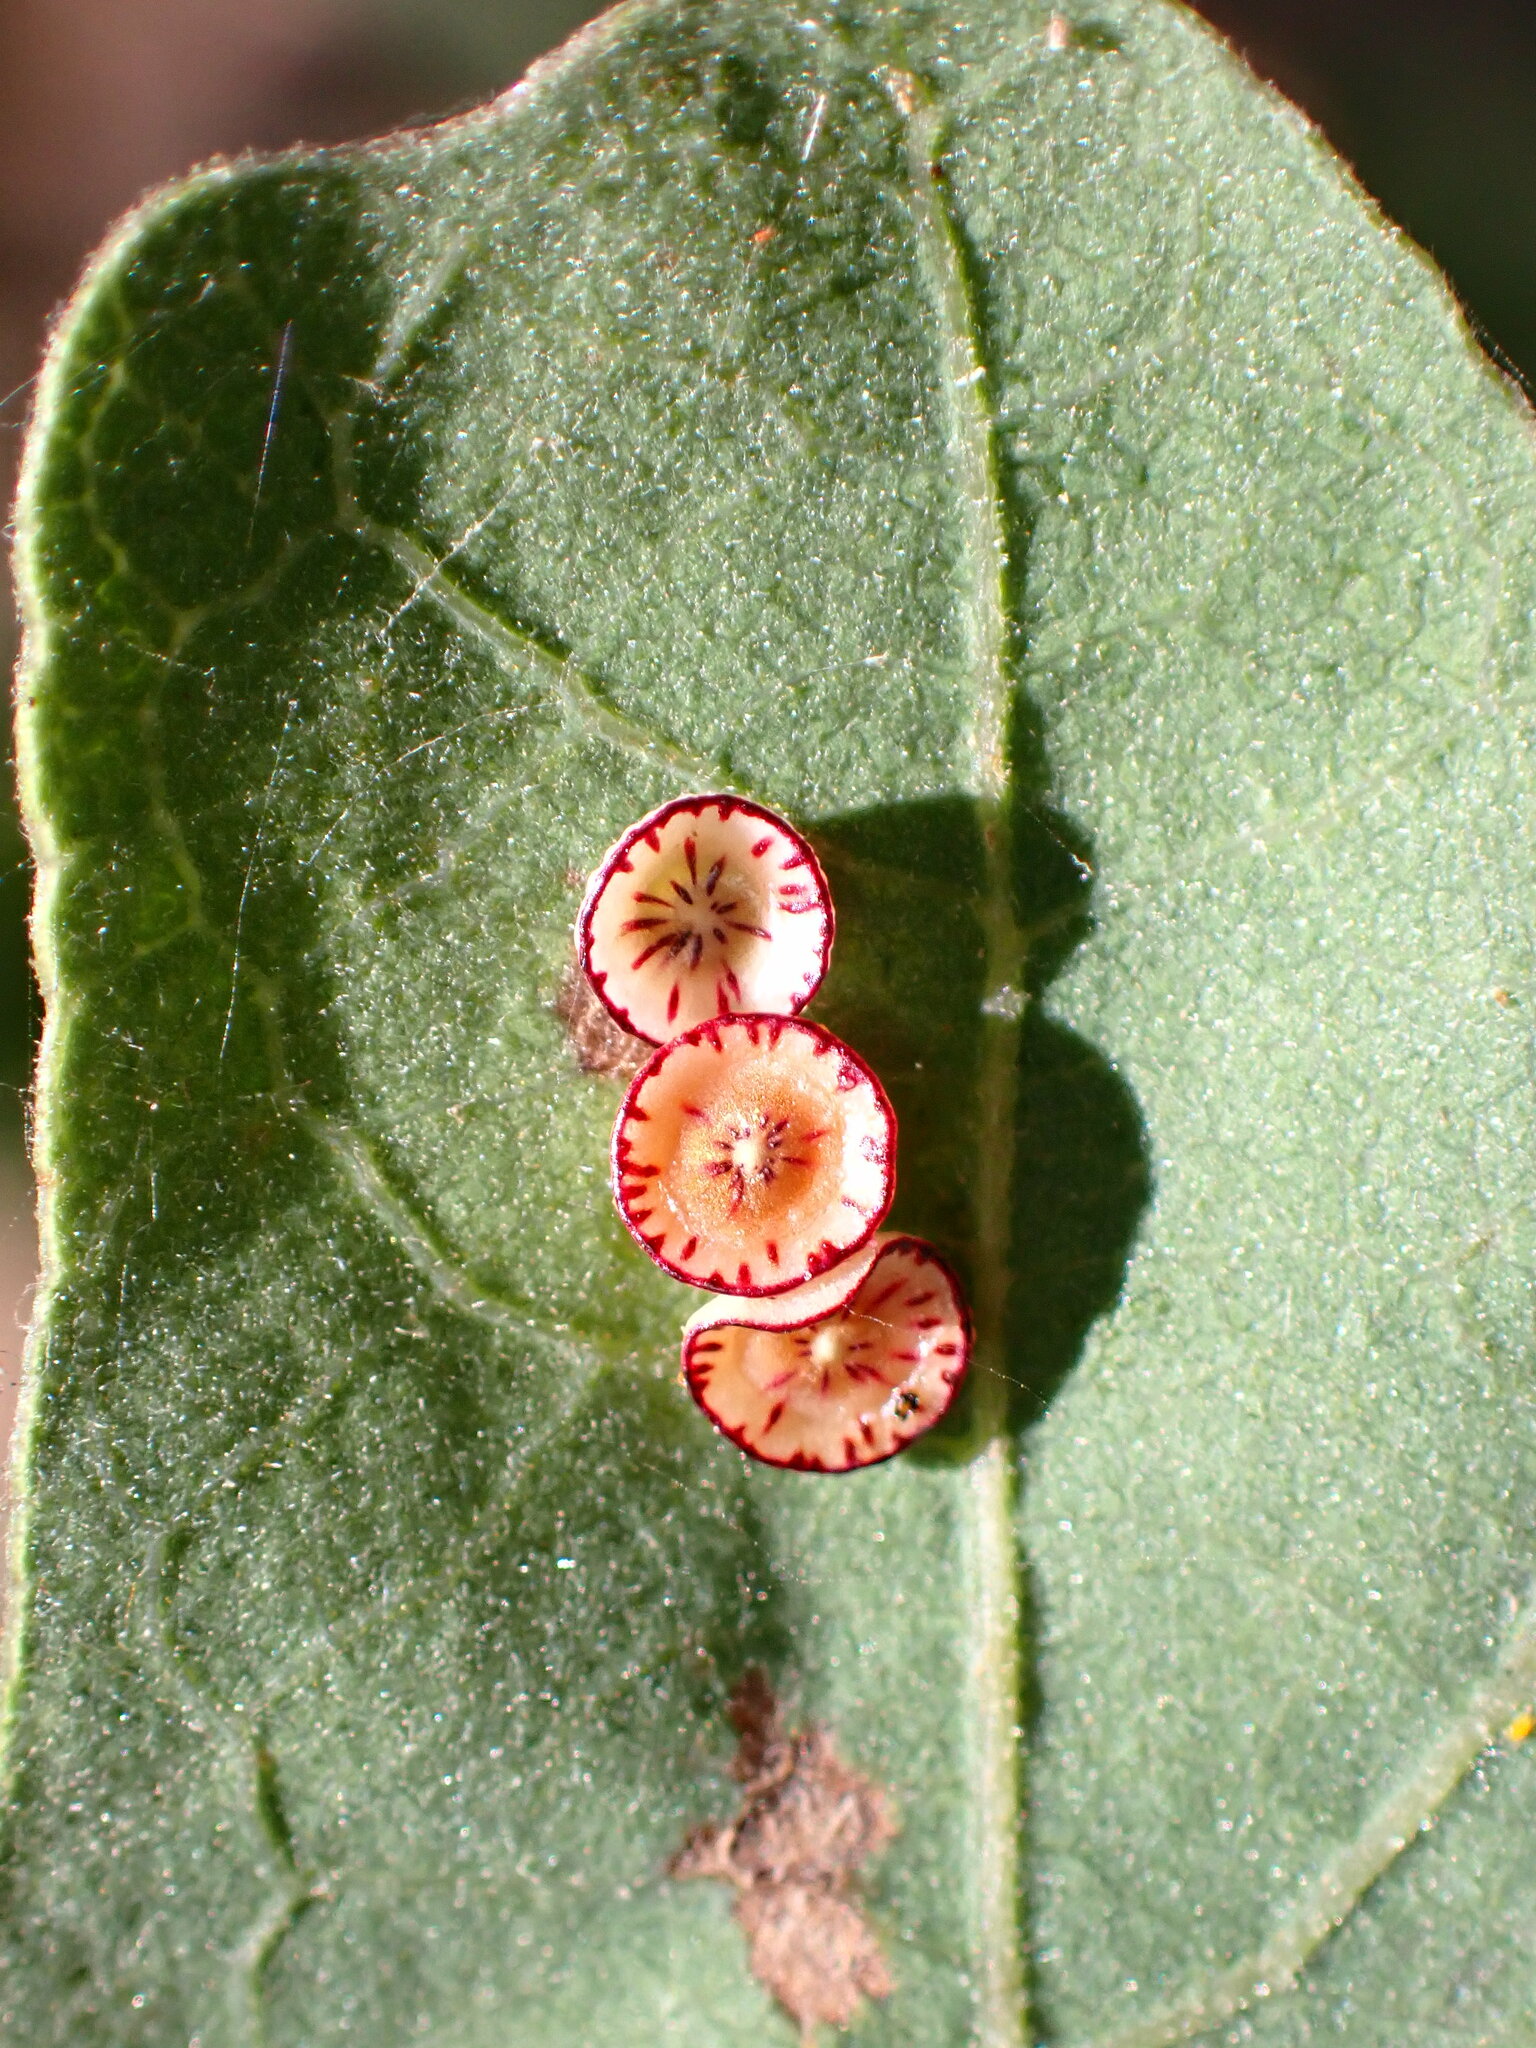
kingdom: Animalia
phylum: Arthropoda
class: Insecta
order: Hymenoptera
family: Cynipidae
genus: Andricus
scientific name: Andricus
